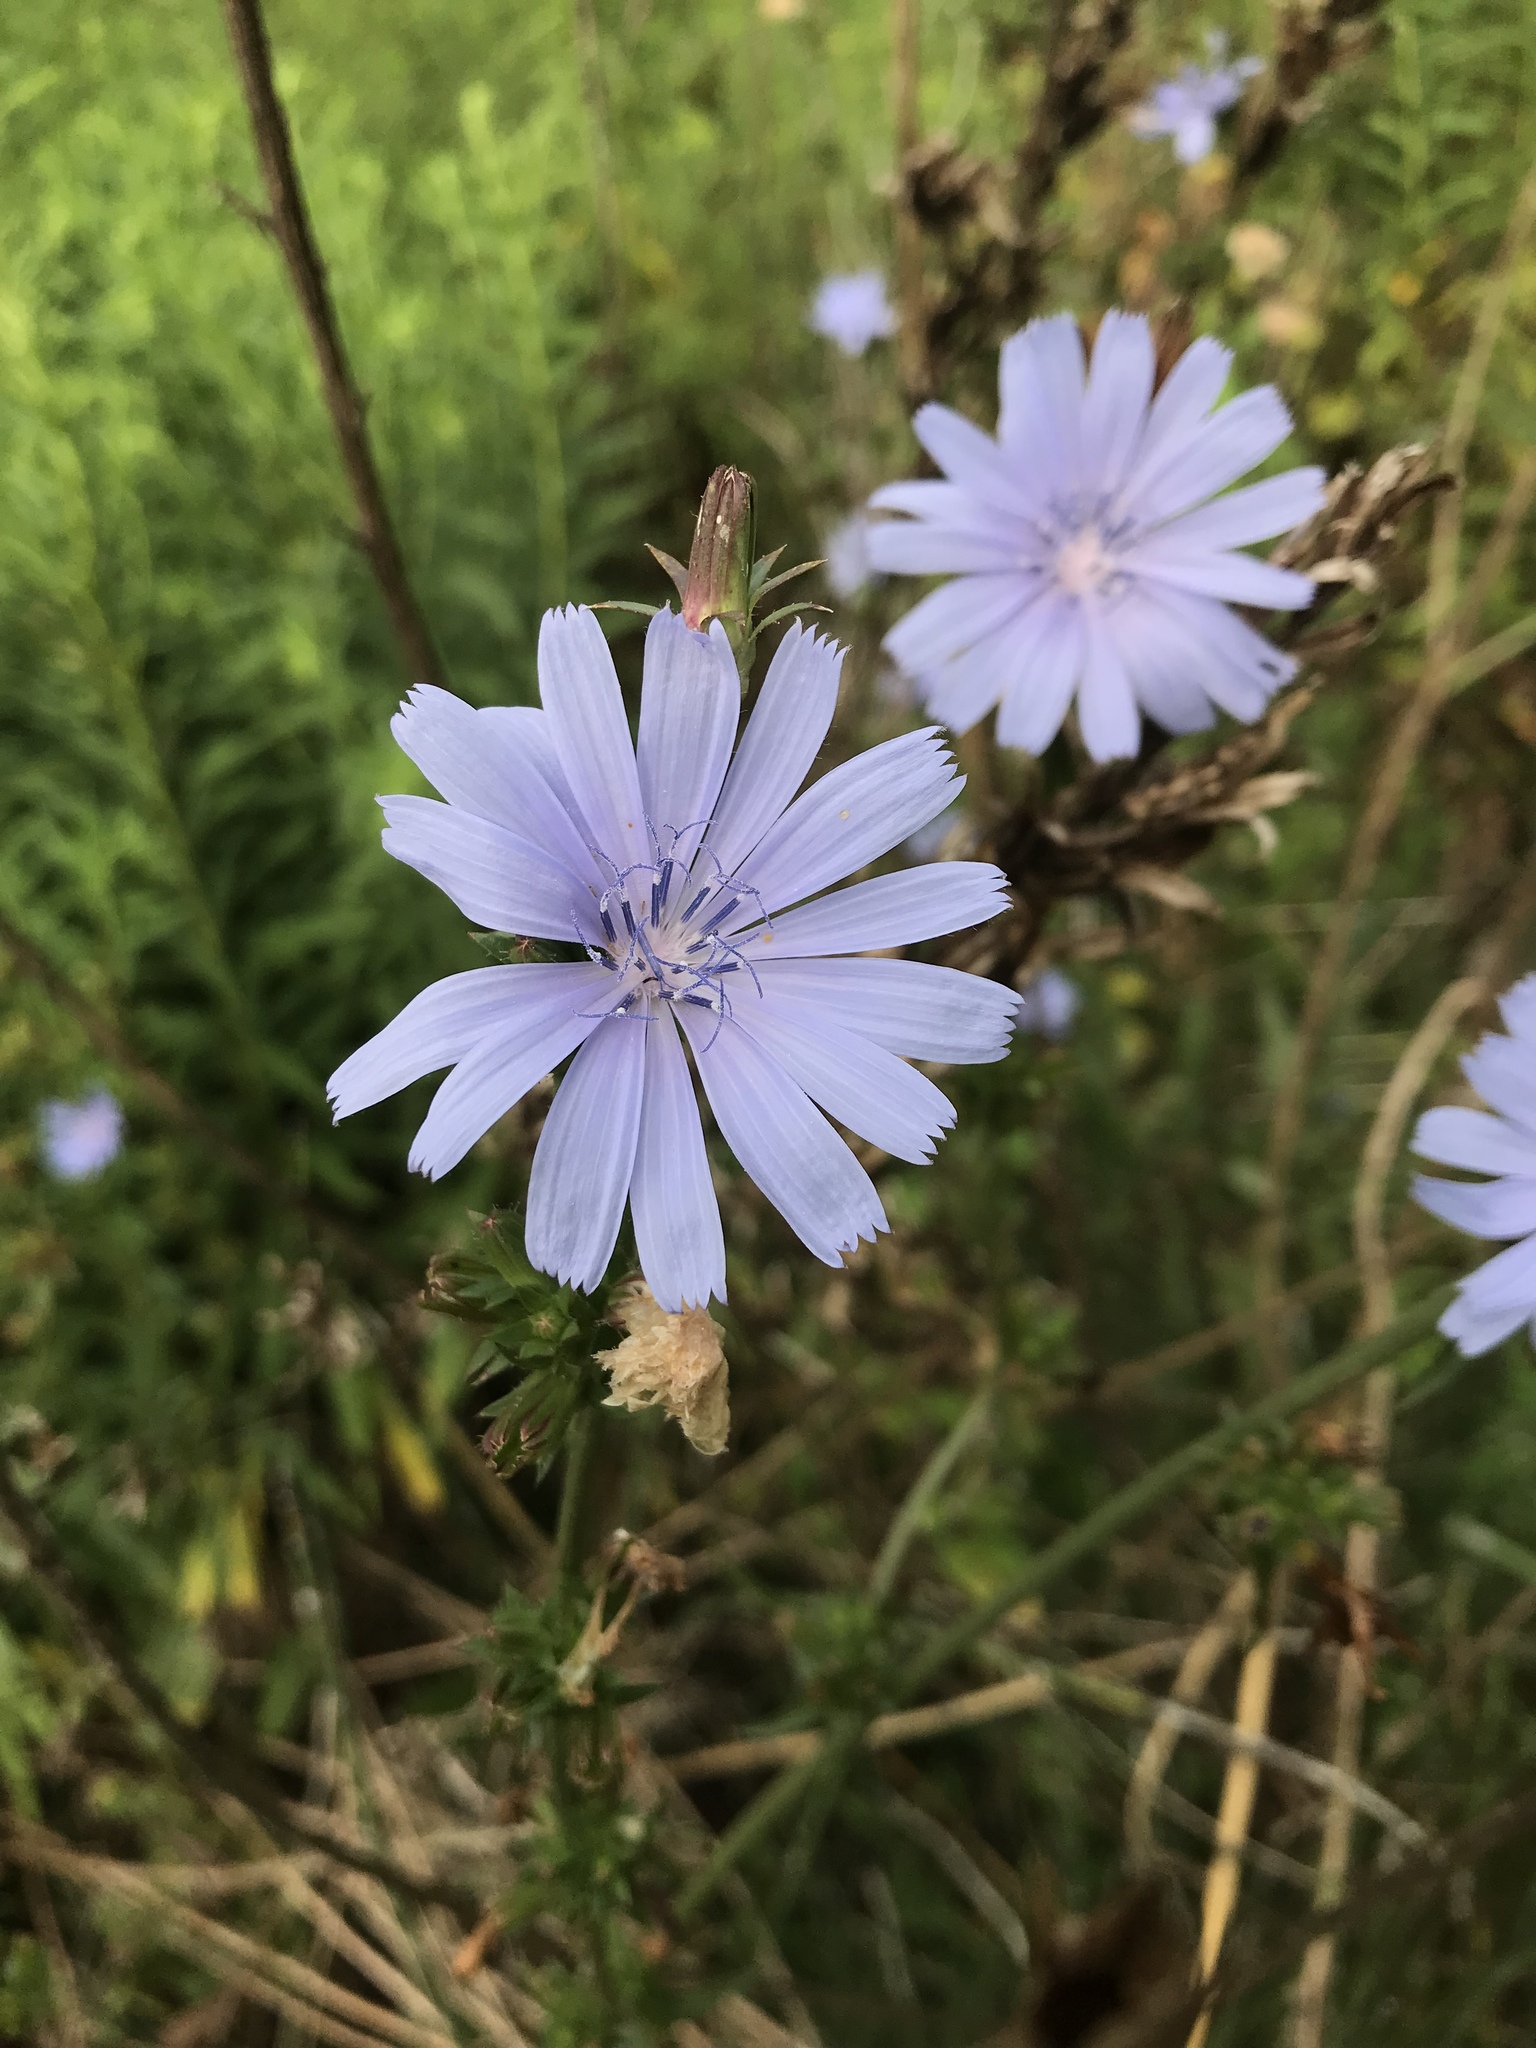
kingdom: Plantae
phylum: Tracheophyta
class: Magnoliopsida
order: Asterales
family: Asteraceae
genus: Cichorium
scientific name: Cichorium intybus
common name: Chicory
